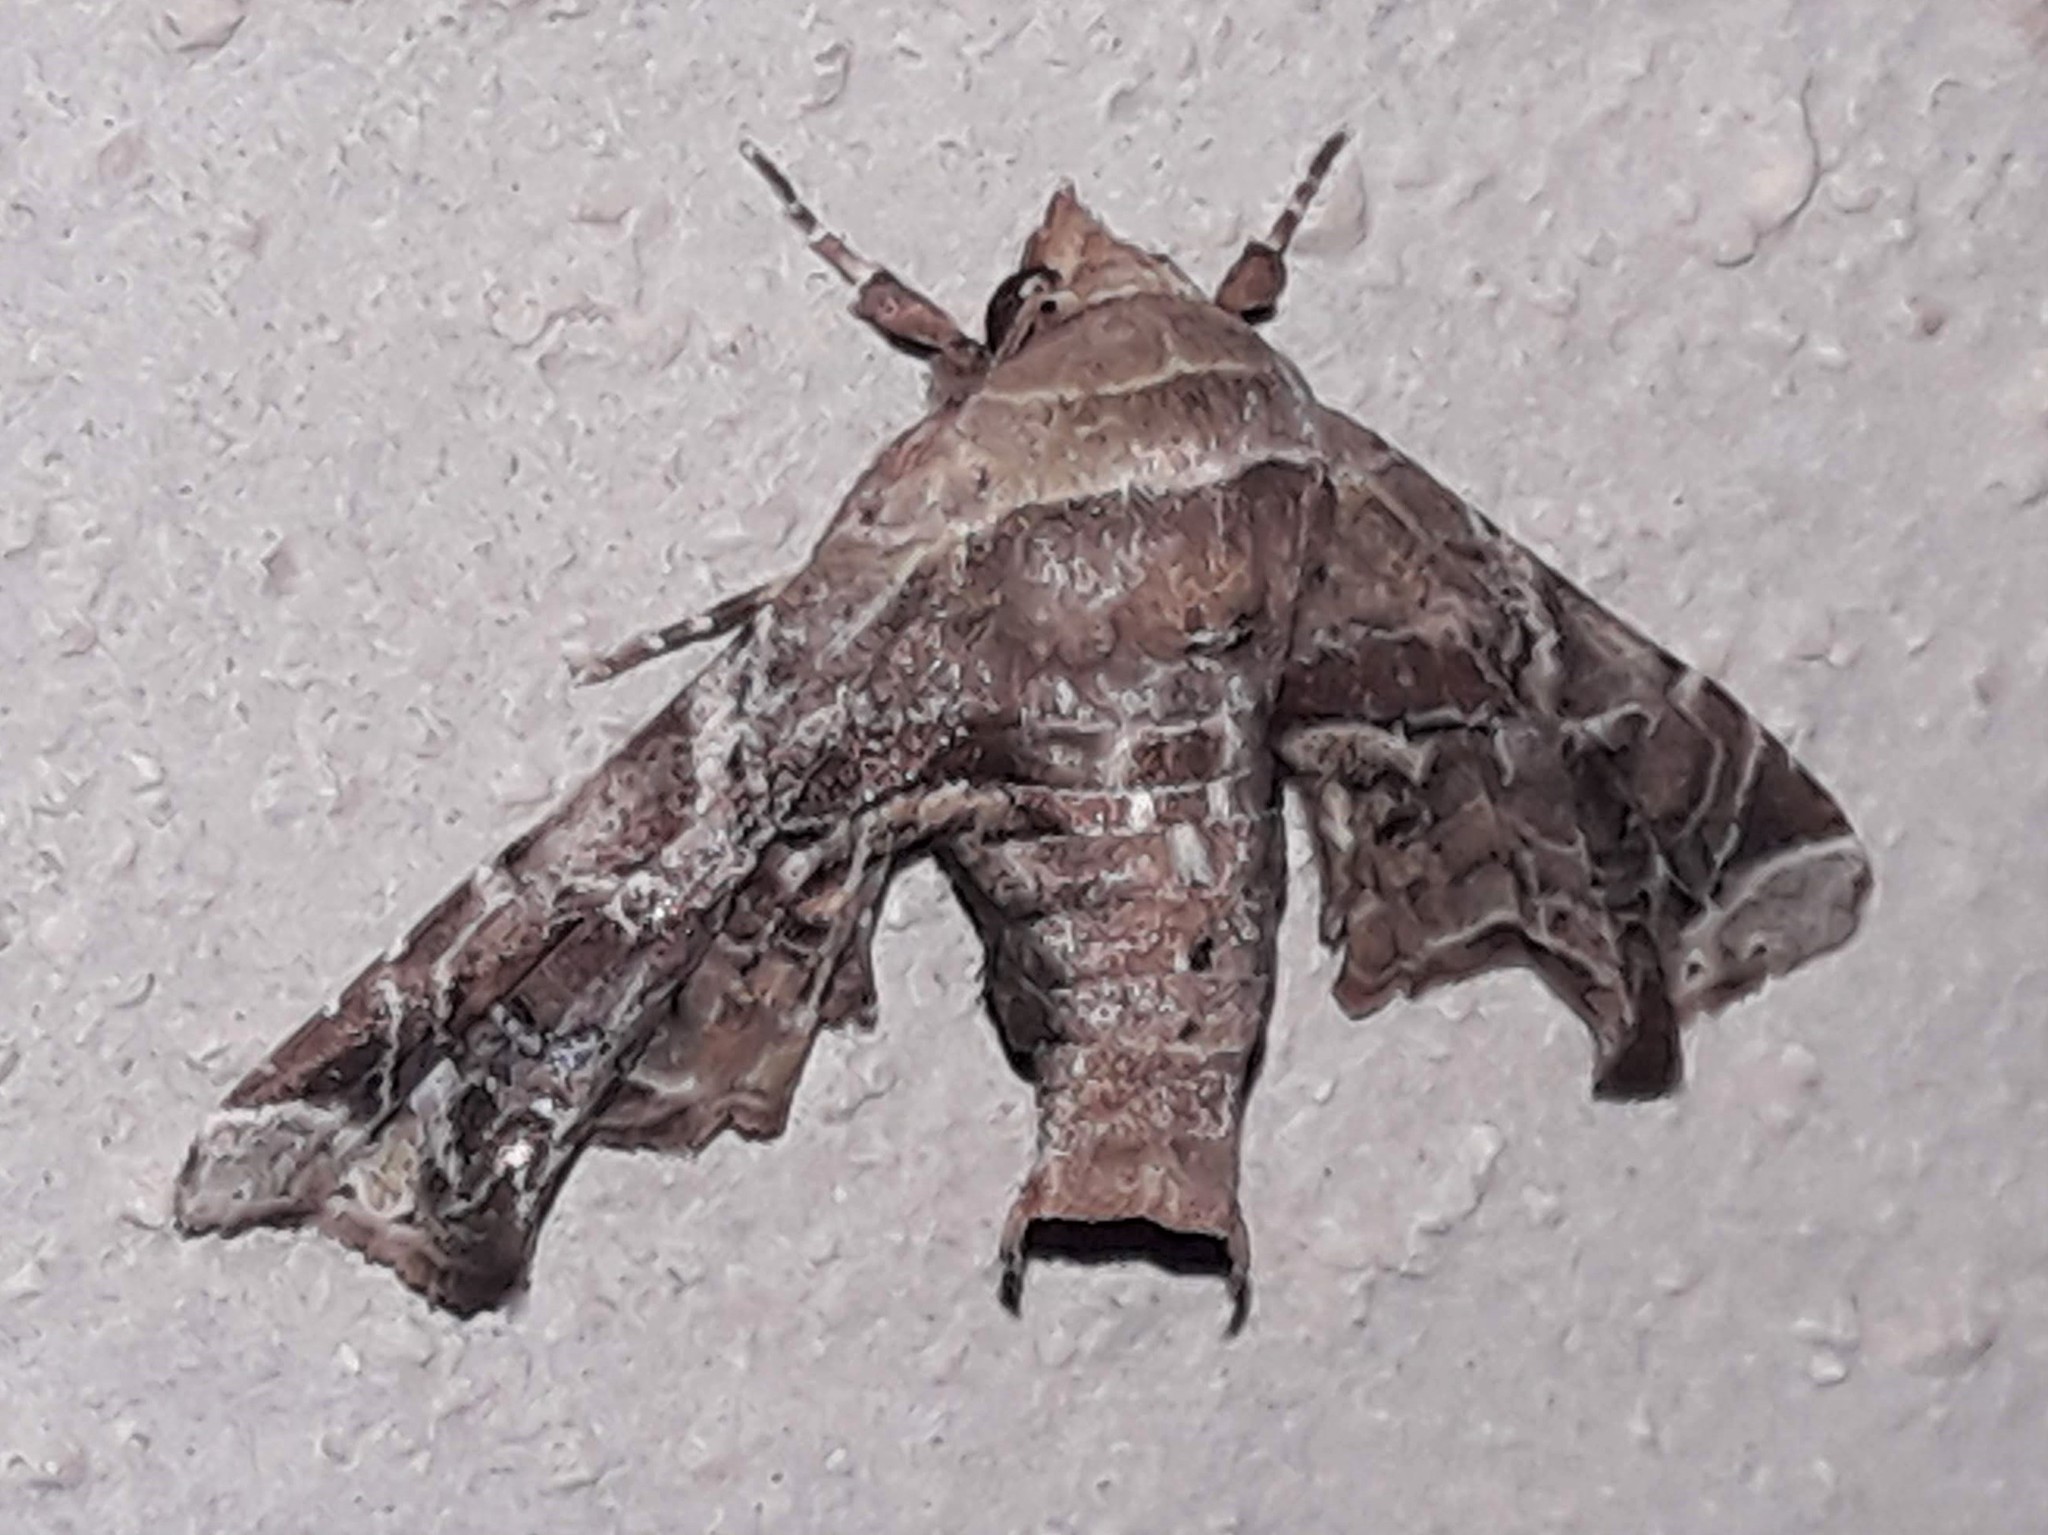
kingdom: Animalia
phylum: Arthropoda
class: Insecta
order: Lepidoptera
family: Euteliidae
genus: Eutelia
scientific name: Eutelia furcata
